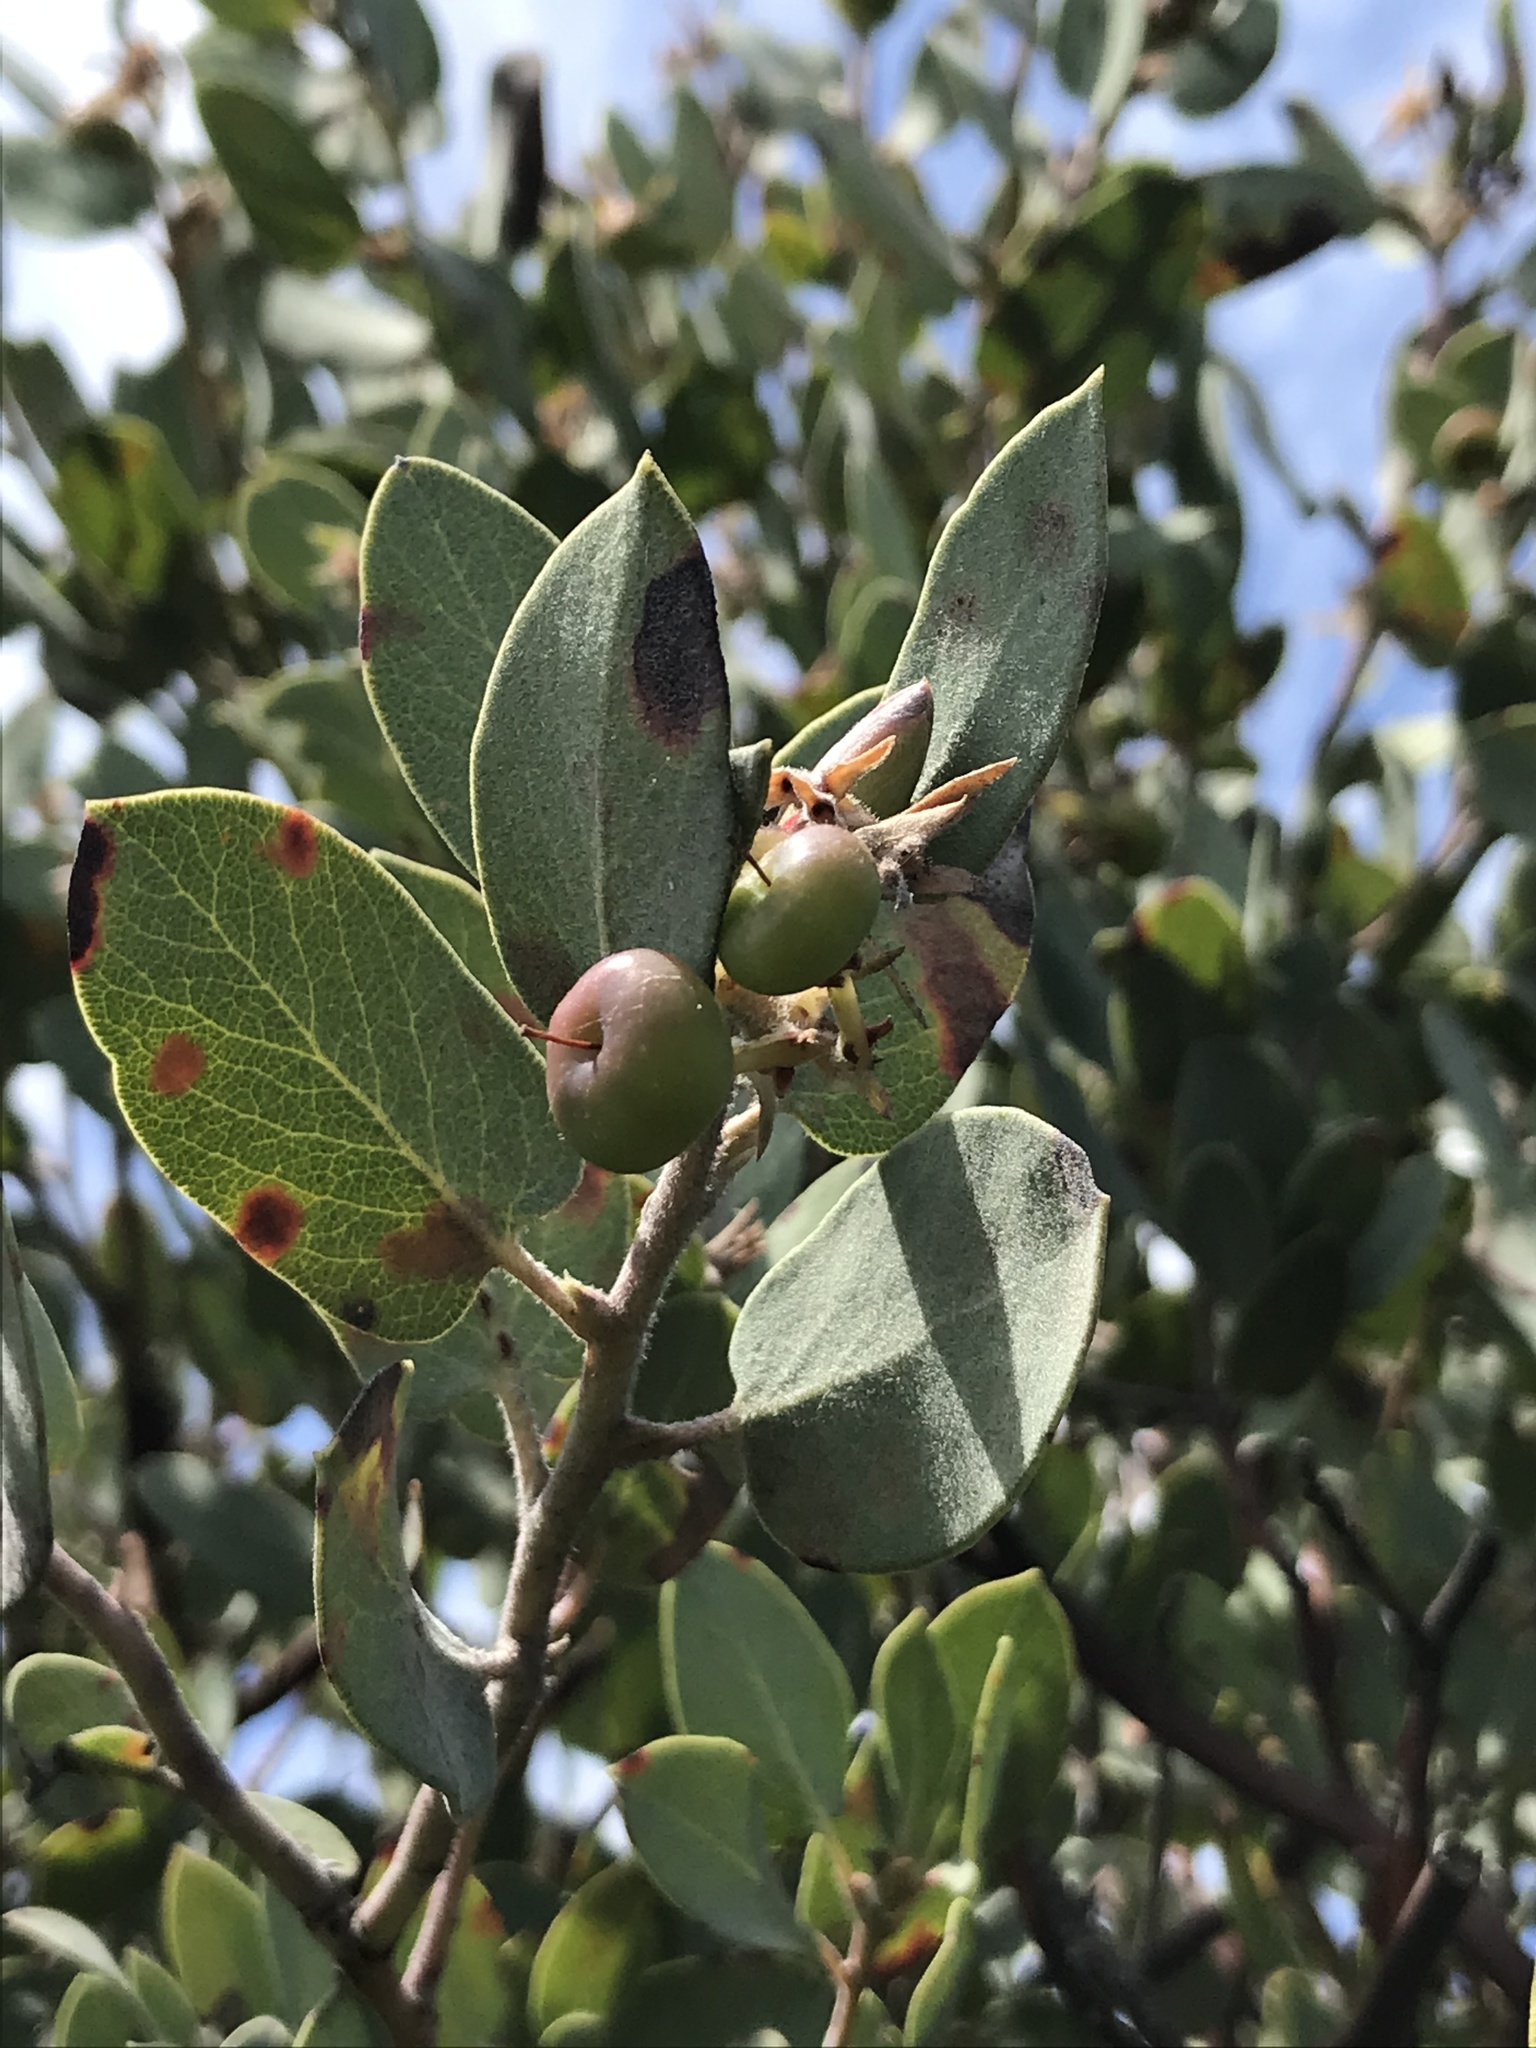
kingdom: Plantae
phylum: Tracheophyta
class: Magnoliopsida
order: Ericales
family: Ericaceae
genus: Arctostaphylos
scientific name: Arctostaphylos obispoensis
